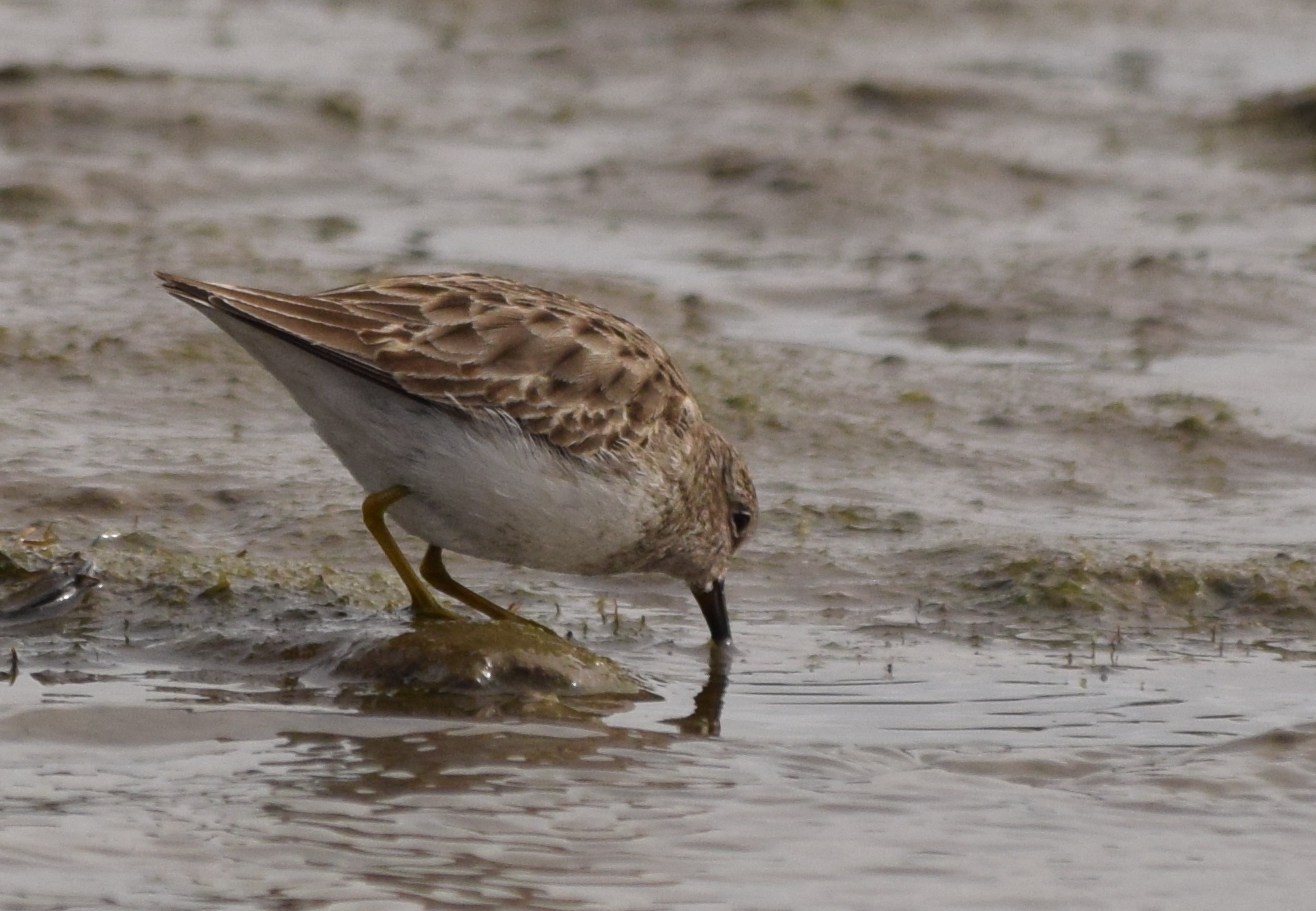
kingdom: Animalia
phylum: Chordata
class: Aves
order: Charadriiformes
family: Scolopacidae
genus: Calidris
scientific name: Calidris minutilla
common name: Least sandpiper
